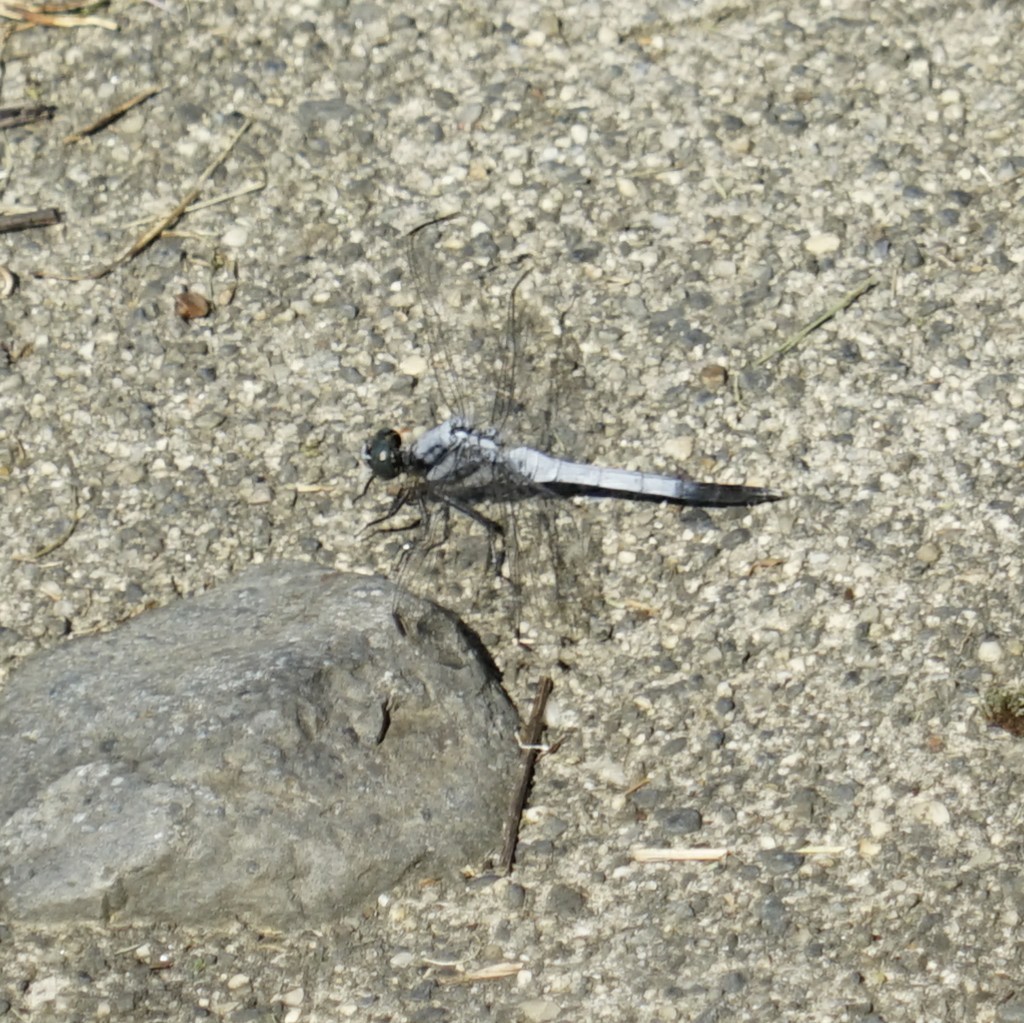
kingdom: Animalia
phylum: Arthropoda
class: Insecta
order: Odonata
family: Libellulidae
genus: Orthetrum
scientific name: Orthetrum albistylum
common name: White-tailed skimmer
